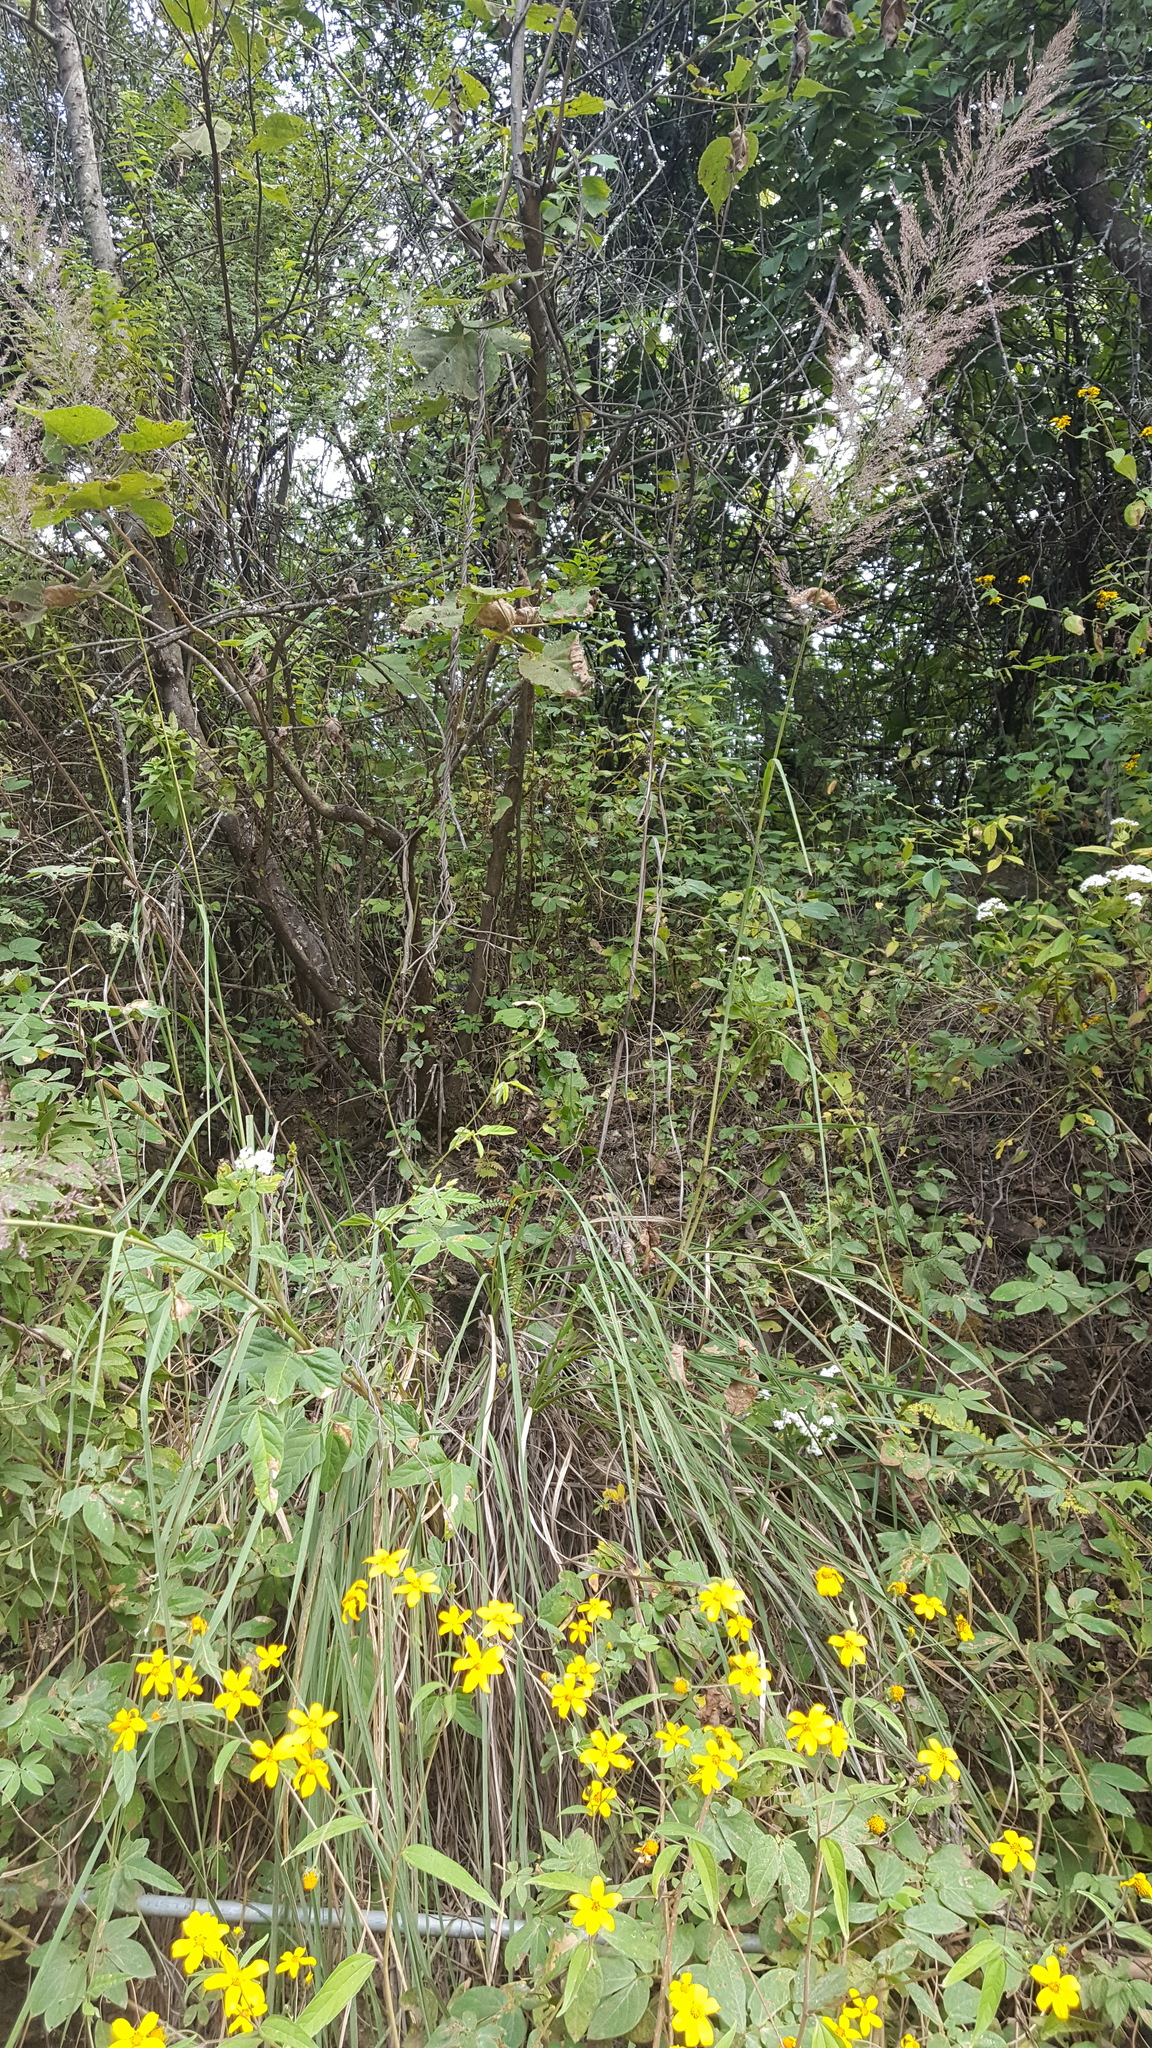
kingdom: Plantae
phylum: Tracheophyta
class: Liliopsida
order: Poales
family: Poaceae
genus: Muhlenbergia
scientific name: Muhlenbergia emersleyi
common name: Bull grass
